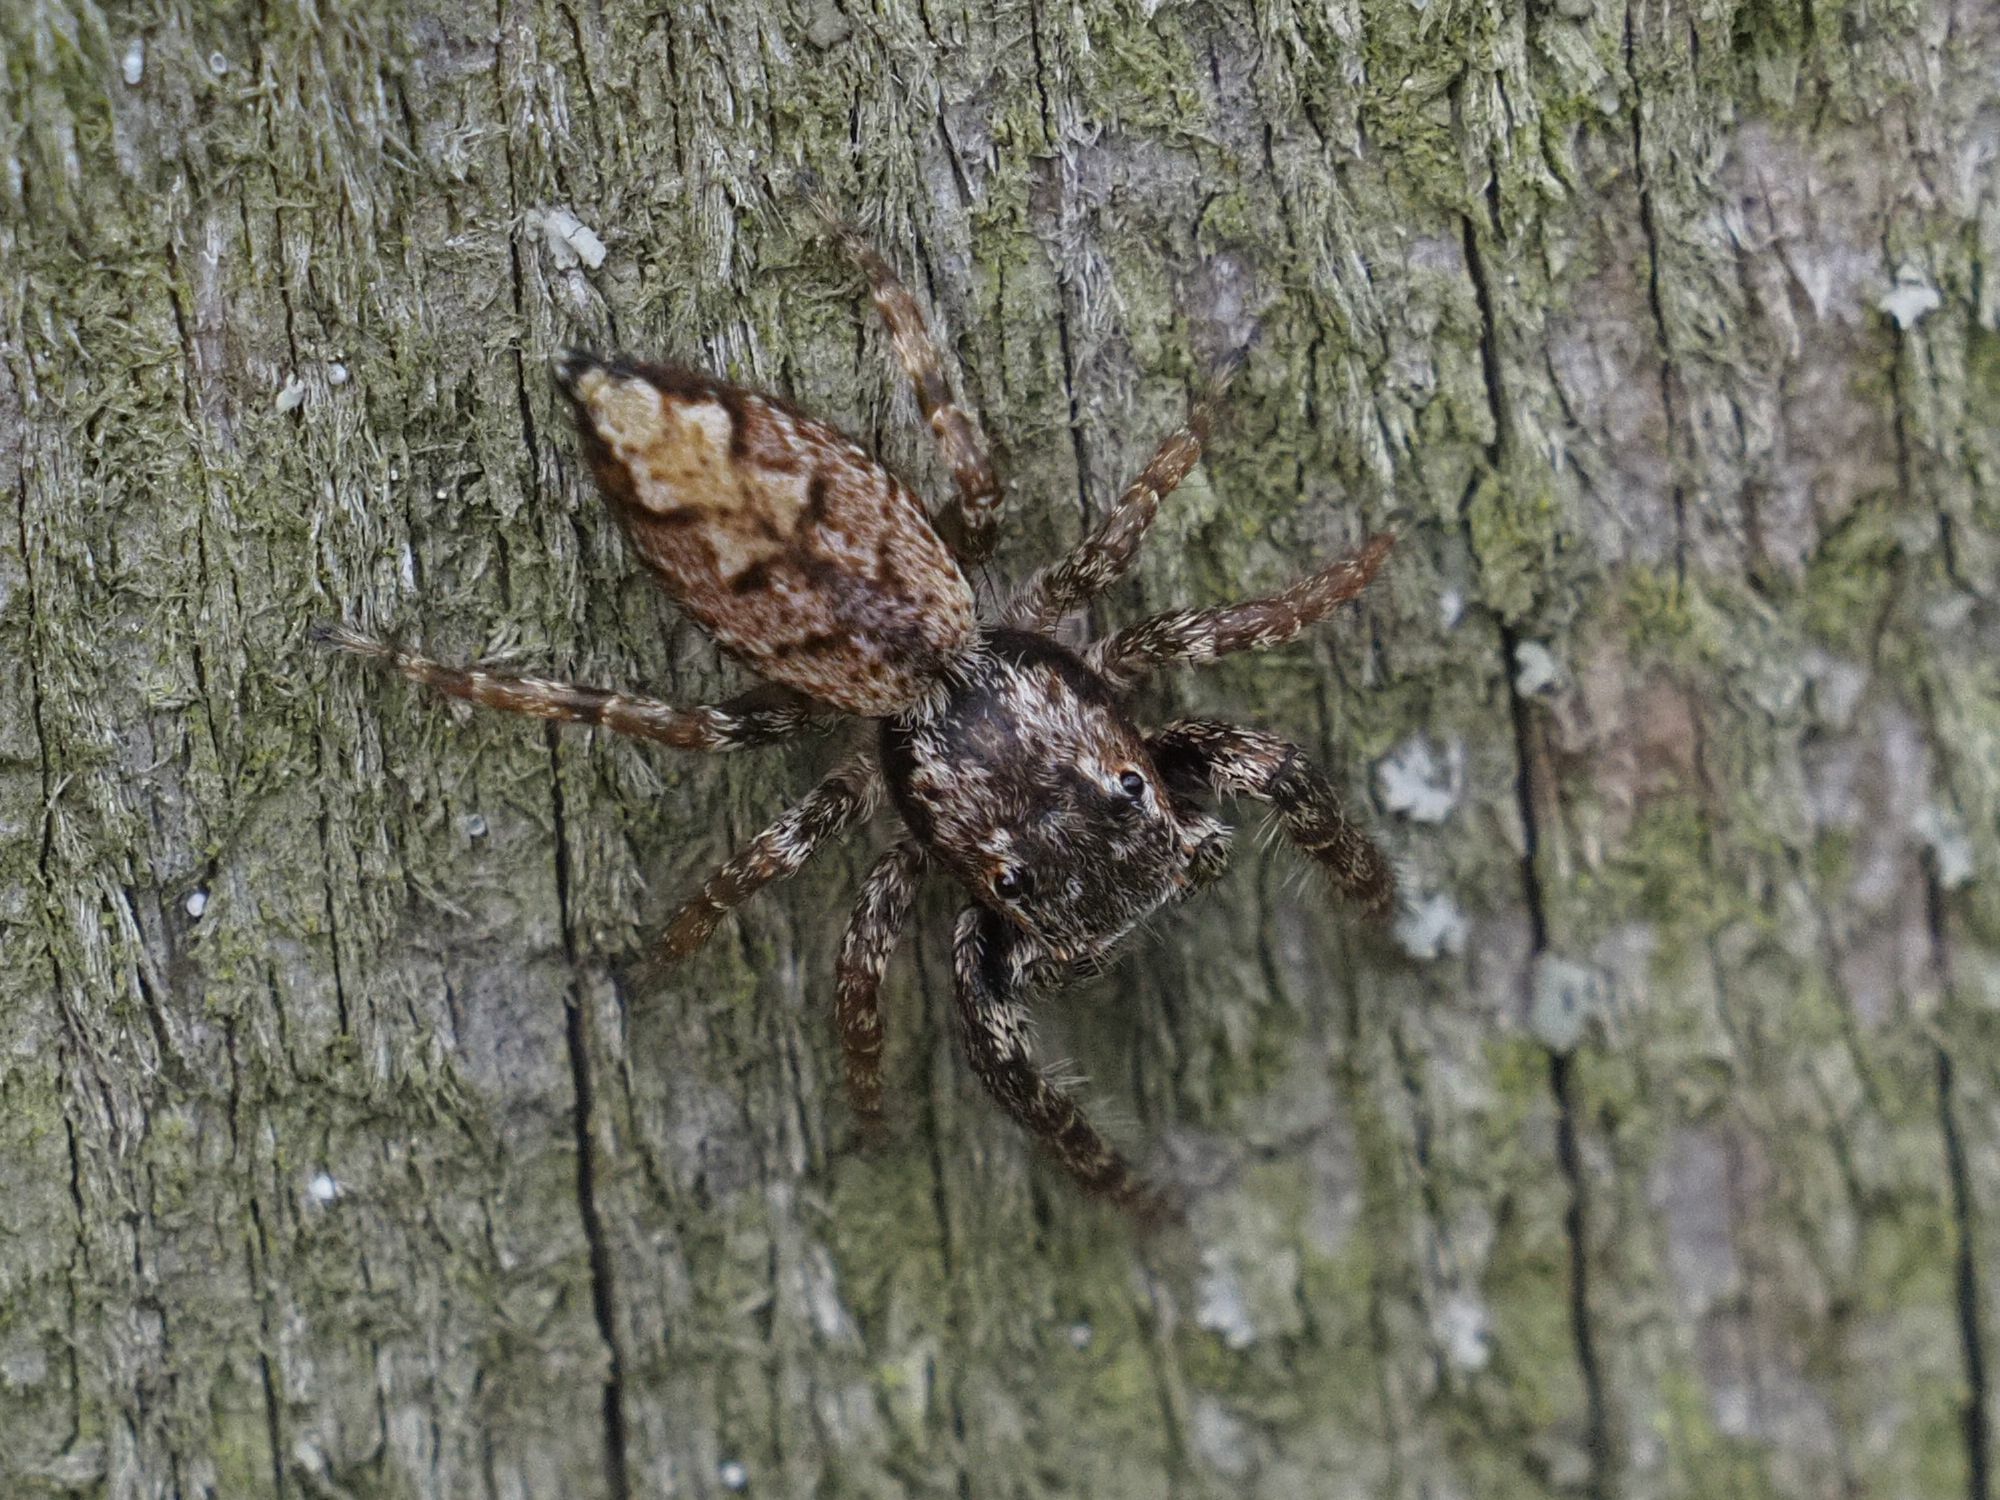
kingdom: Animalia
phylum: Arthropoda
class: Arachnida
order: Araneae
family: Salticidae
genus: Marpissa
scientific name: Marpissa muscosa
